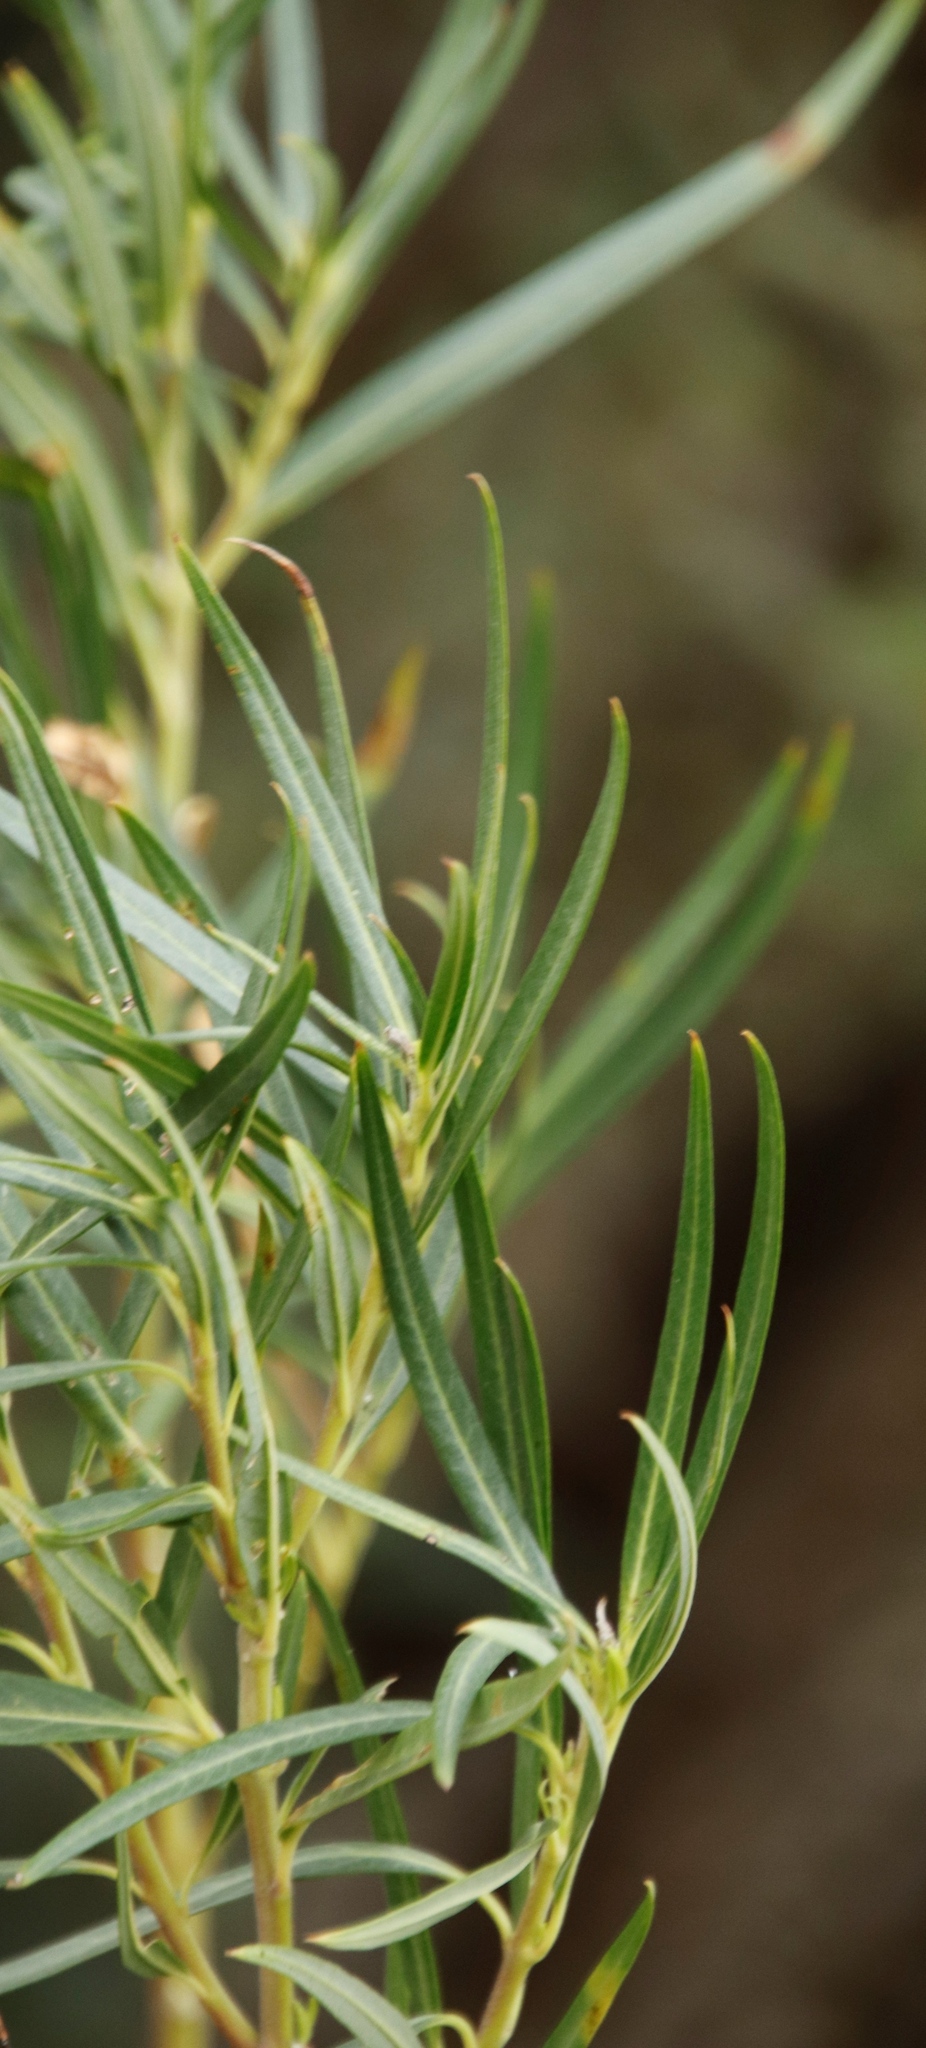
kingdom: Plantae
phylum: Tracheophyta
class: Magnoliopsida
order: Gentianales
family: Apocynaceae
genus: Gomphocarpus
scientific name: Gomphocarpus physocarpus
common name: Balloon cotton bush
